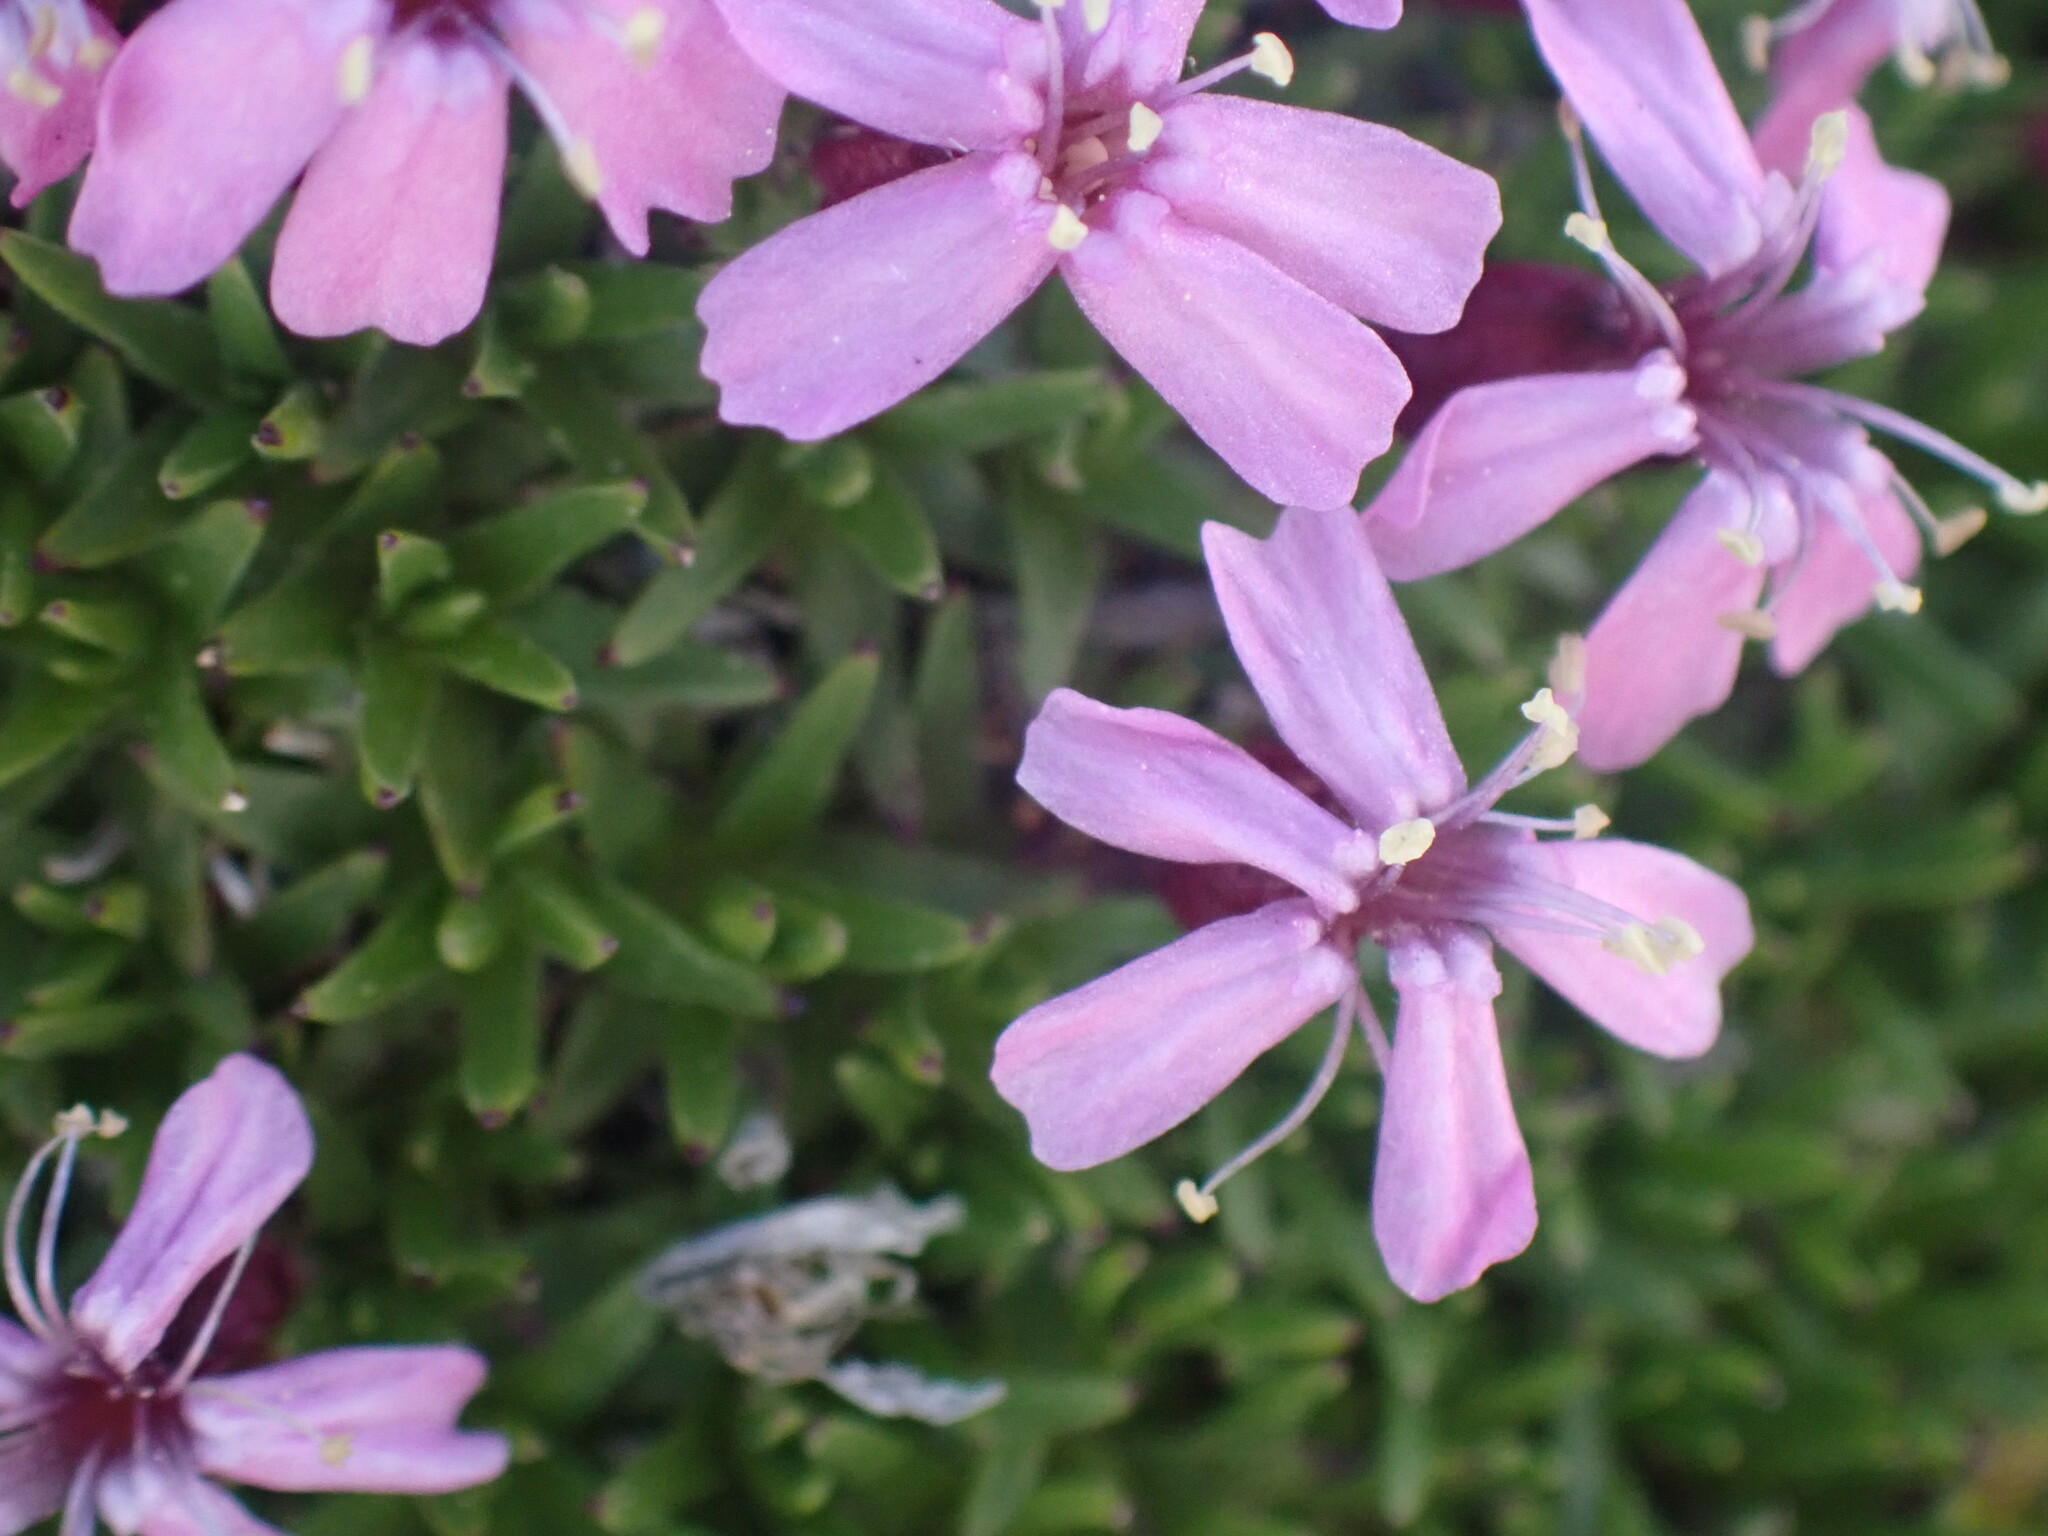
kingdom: Plantae
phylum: Tracheophyta
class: Magnoliopsida
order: Caryophyllales
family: Caryophyllaceae
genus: Silene
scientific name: Silene acaulis
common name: Moss campion
